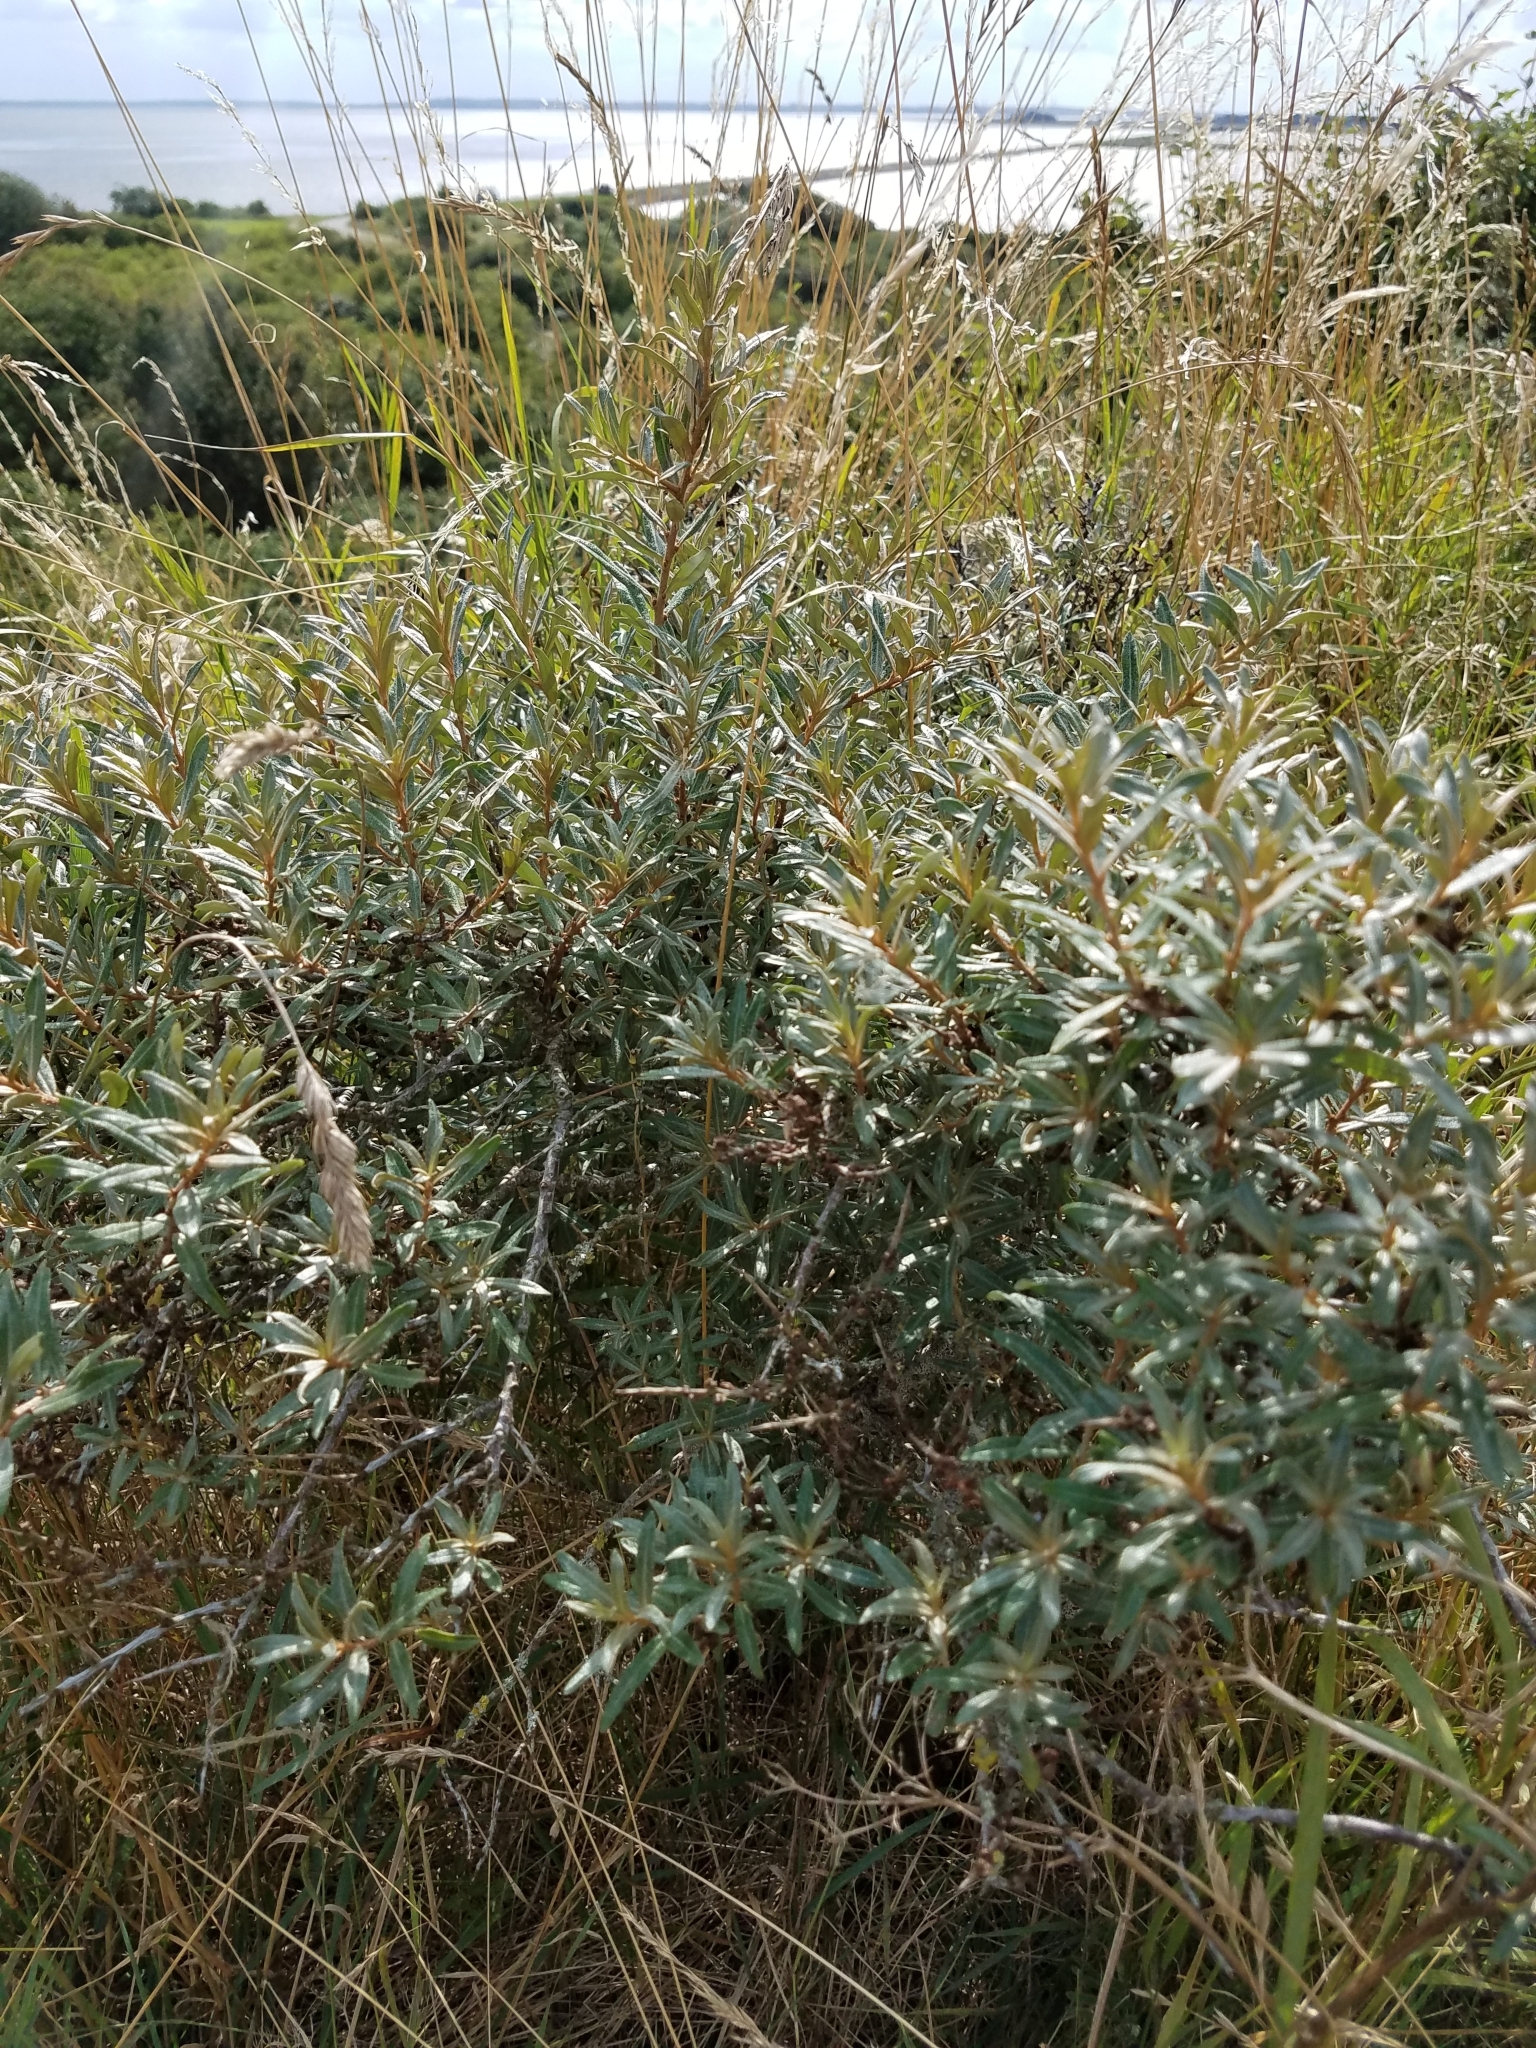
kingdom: Plantae
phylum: Tracheophyta
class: Magnoliopsida
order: Rosales
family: Elaeagnaceae
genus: Hippophae
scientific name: Hippophae rhamnoides
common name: Sea-buckthorn
